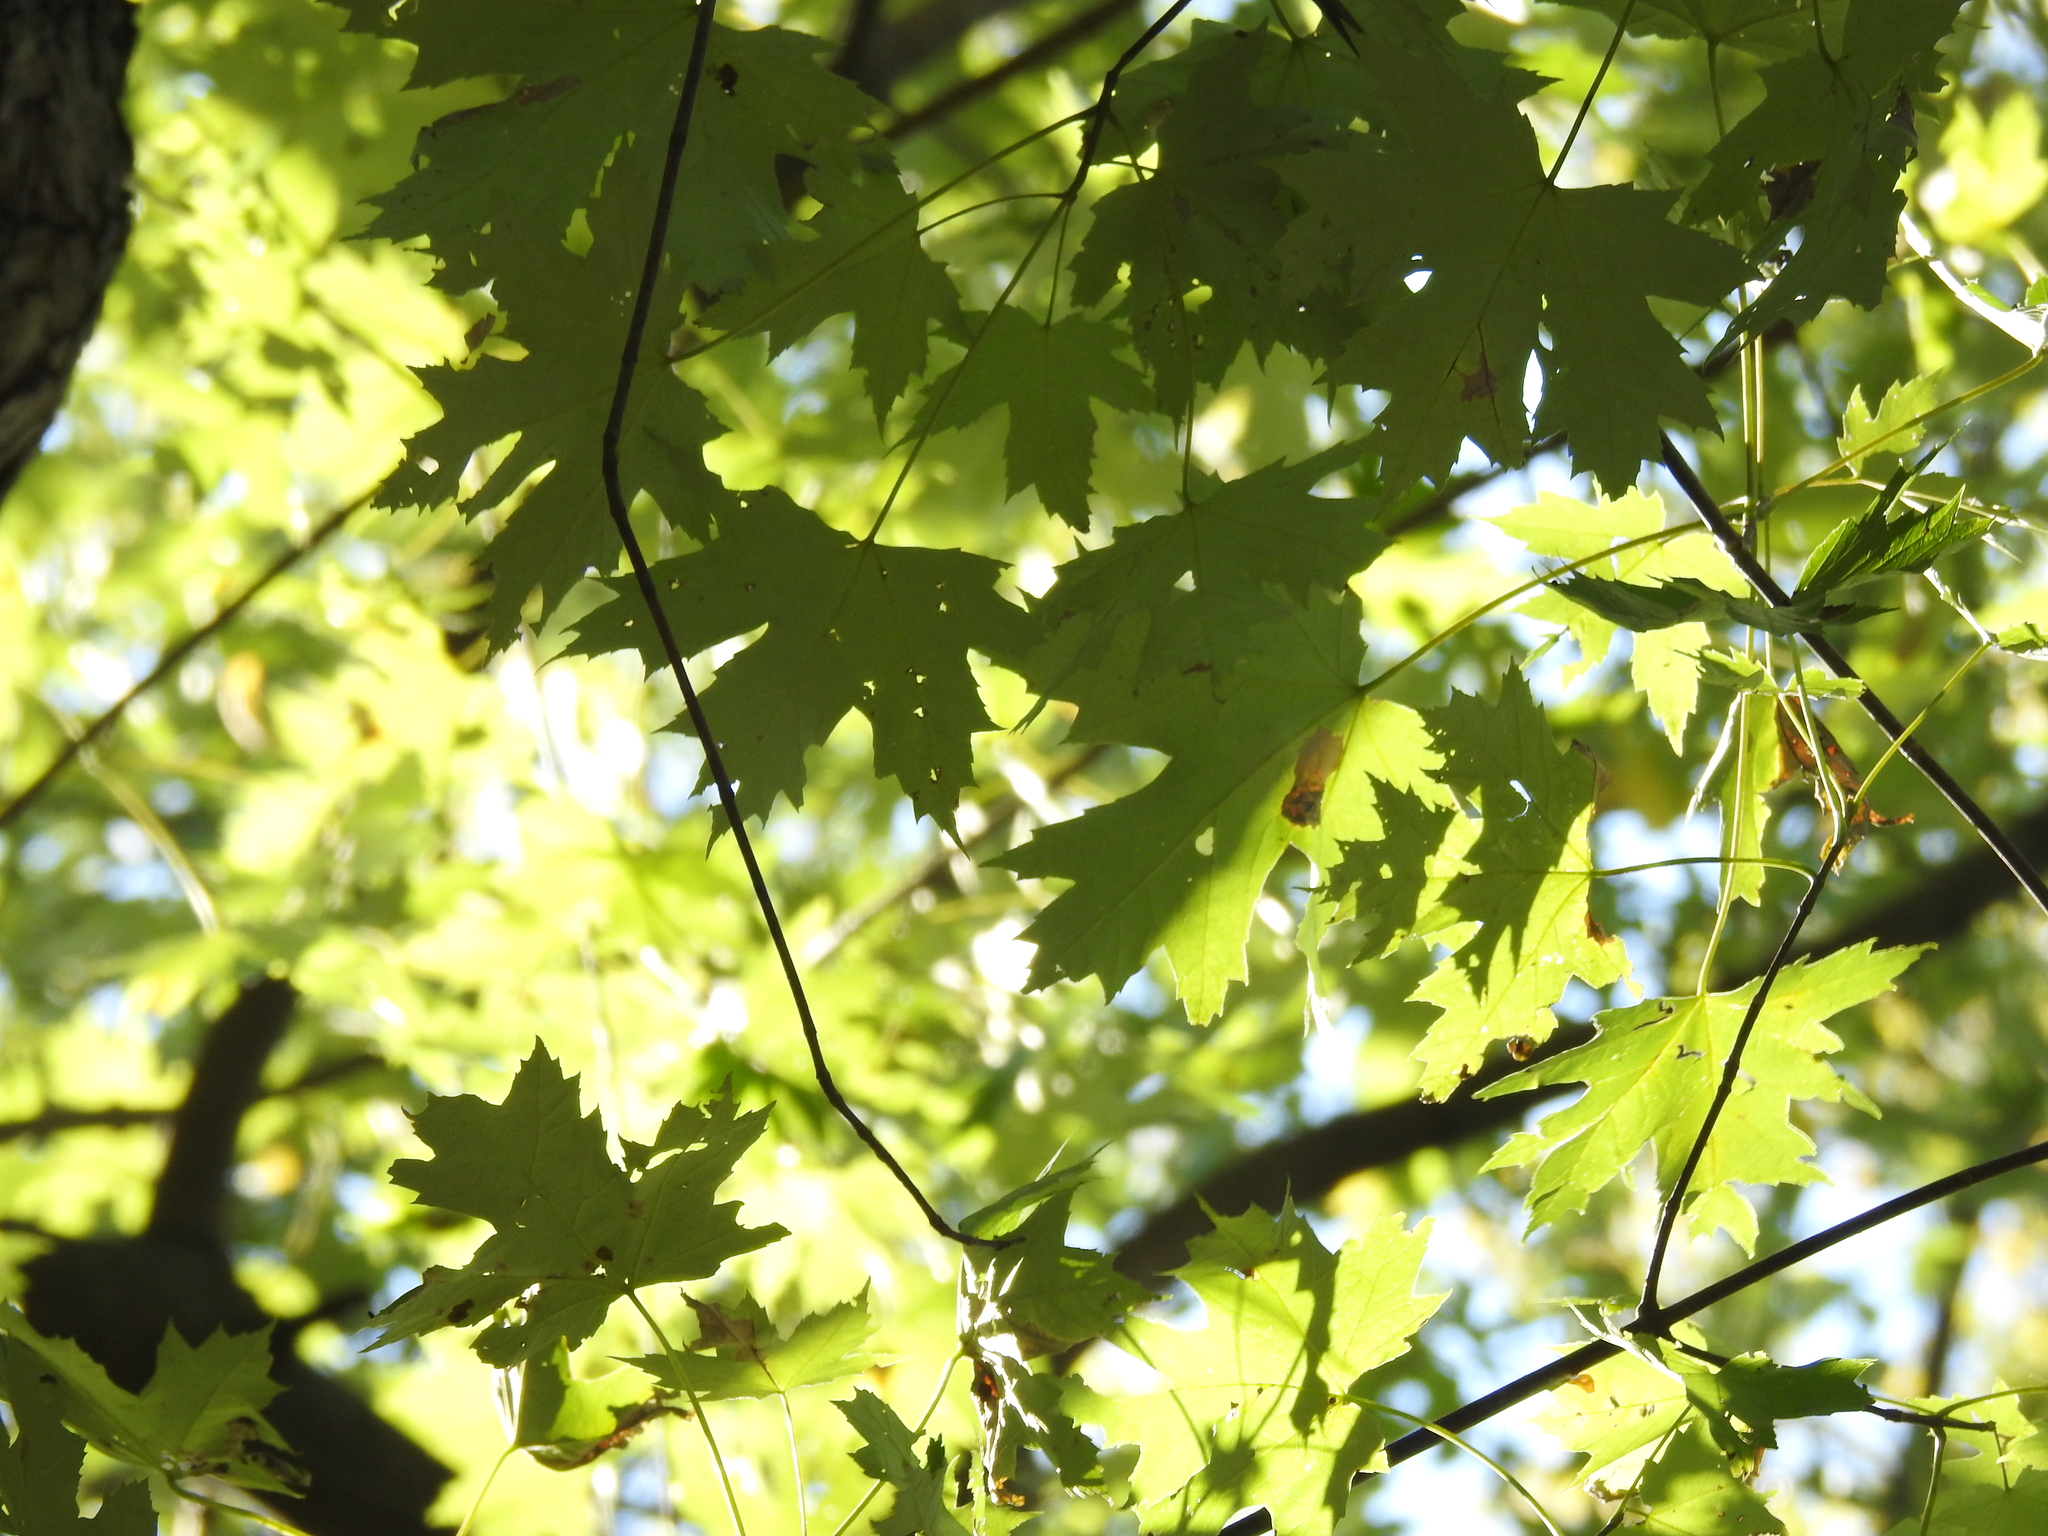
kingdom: Plantae
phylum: Tracheophyta
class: Magnoliopsida
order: Sapindales
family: Sapindaceae
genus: Acer
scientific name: Acer saccharinum
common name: Silver maple
